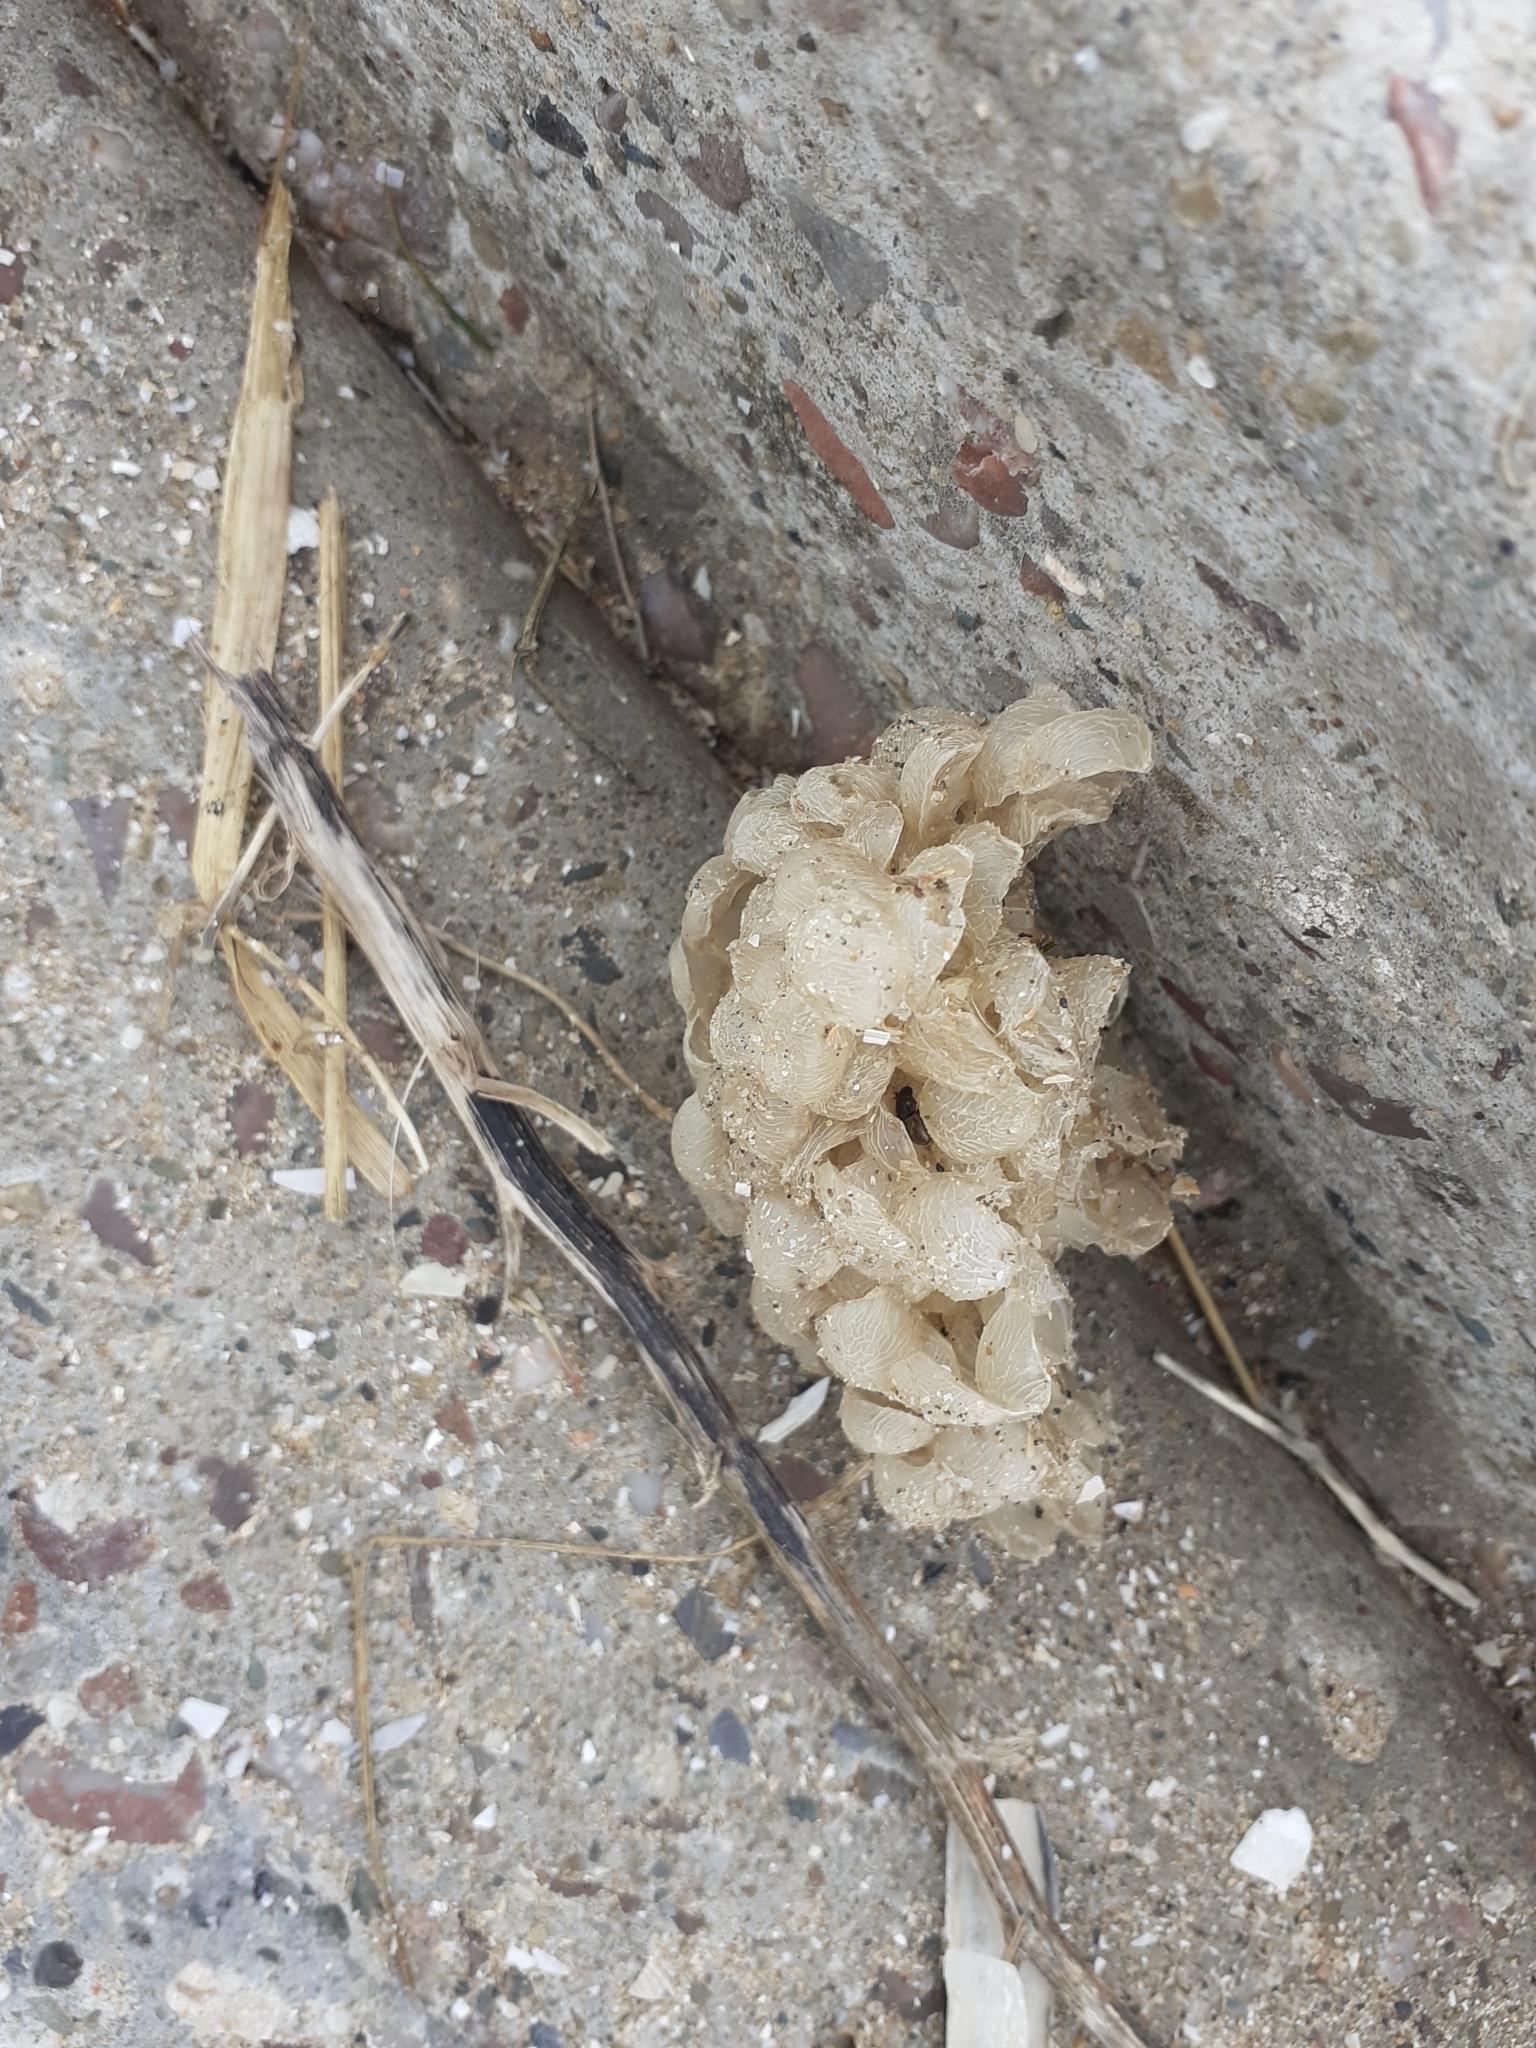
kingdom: Animalia
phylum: Mollusca
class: Gastropoda
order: Neogastropoda
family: Buccinidae
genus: Buccinum
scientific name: Buccinum undatum
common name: Common whelk
